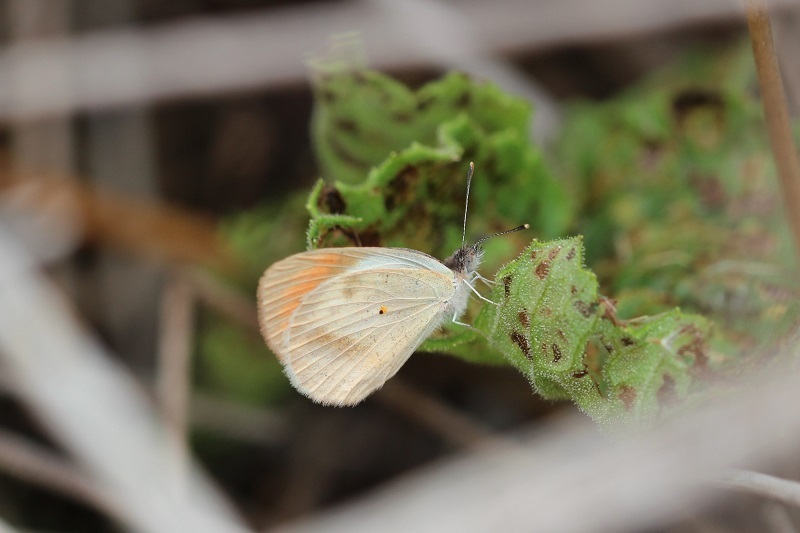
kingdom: Animalia
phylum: Arthropoda
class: Insecta
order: Lepidoptera
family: Pieridae
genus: Colotis
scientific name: Colotis euippe
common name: Round-winged orange tip
